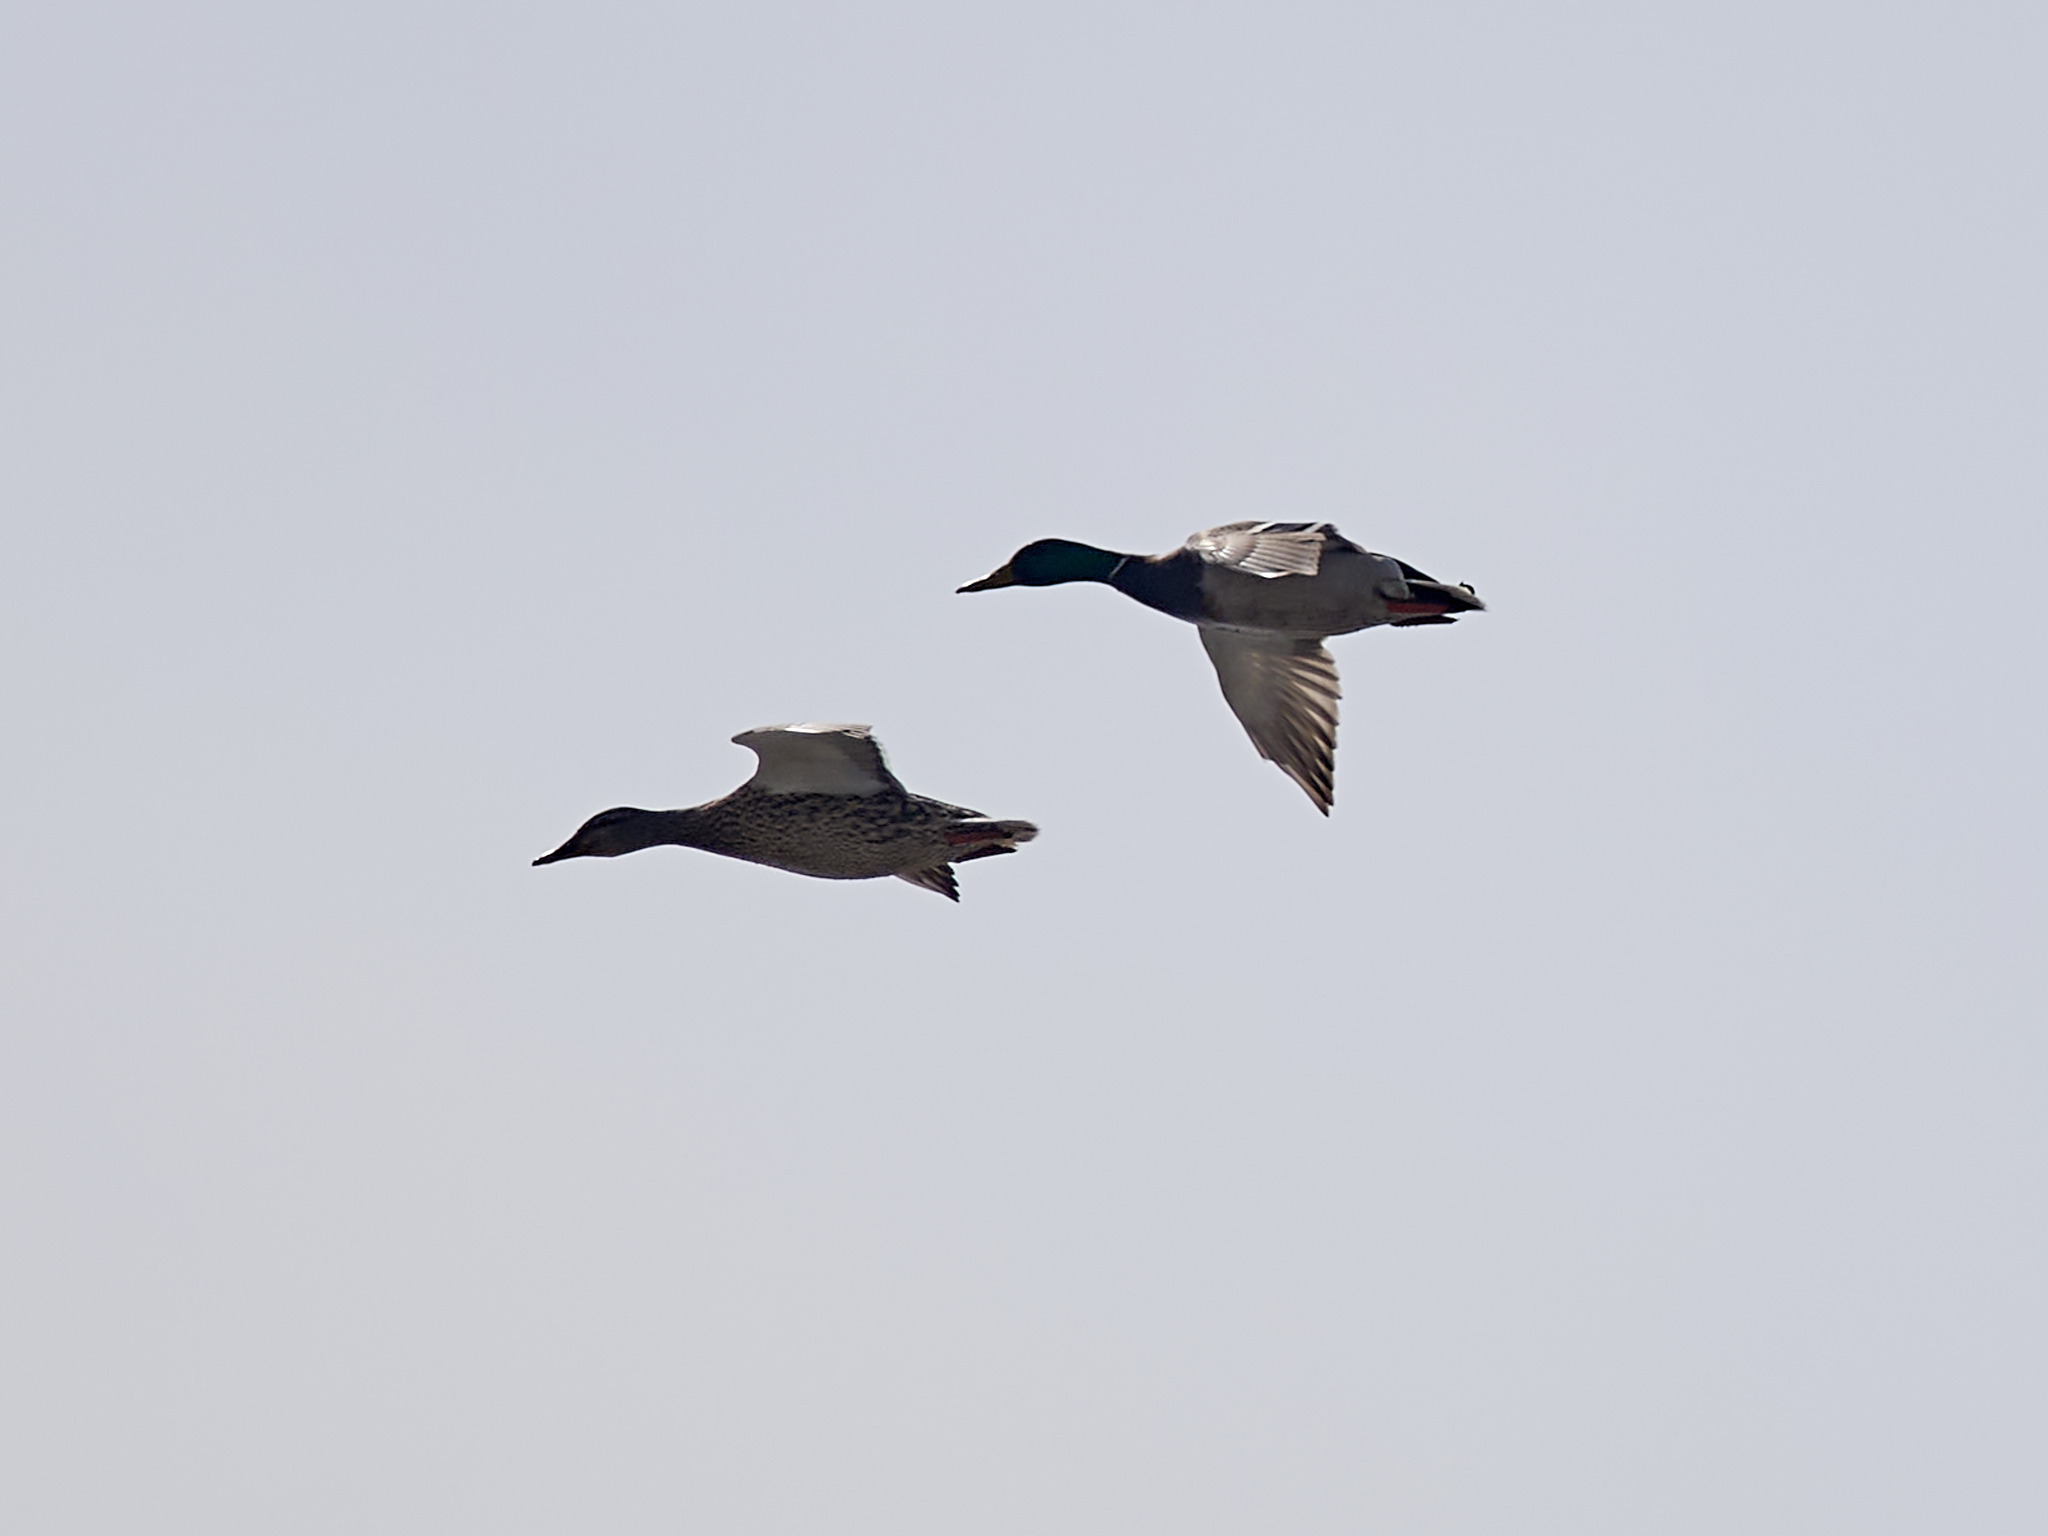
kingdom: Animalia
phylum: Chordata
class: Aves
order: Anseriformes
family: Anatidae
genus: Anas
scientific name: Anas platyrhynchos
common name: Mallard
